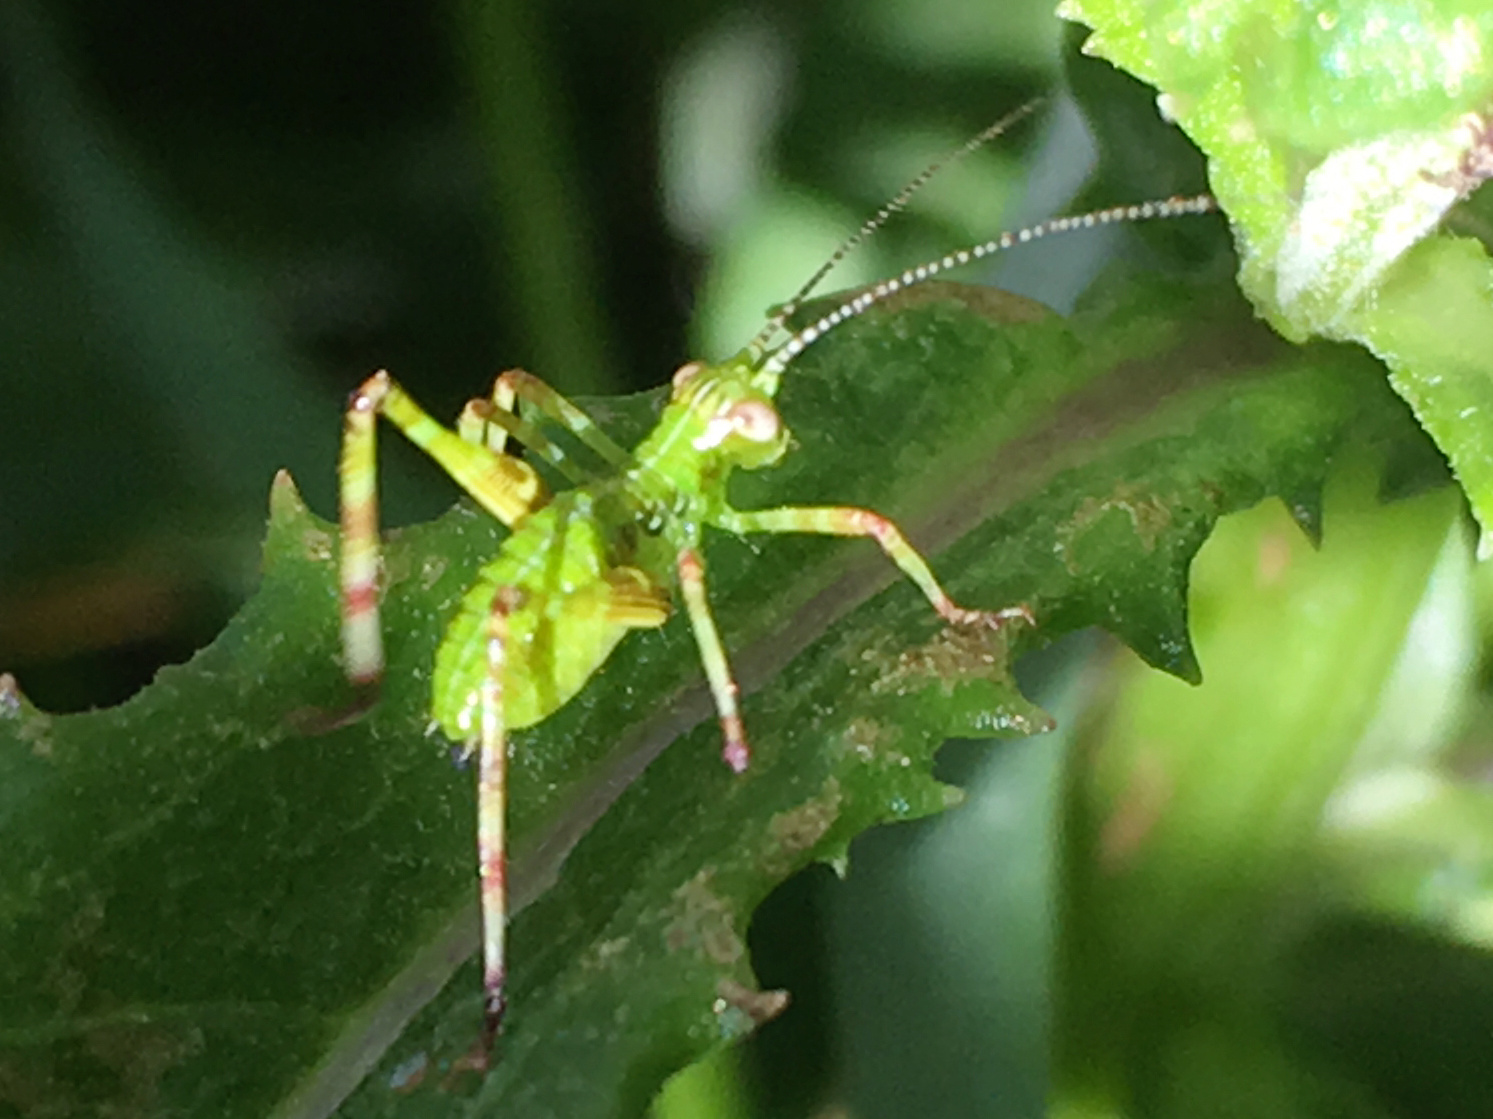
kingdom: Animalia
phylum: Arthropoda
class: Insecta
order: Orthoptera
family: Tettigoniidae
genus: Caedicia
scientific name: Caedicia simplex
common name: Common garden katydid
